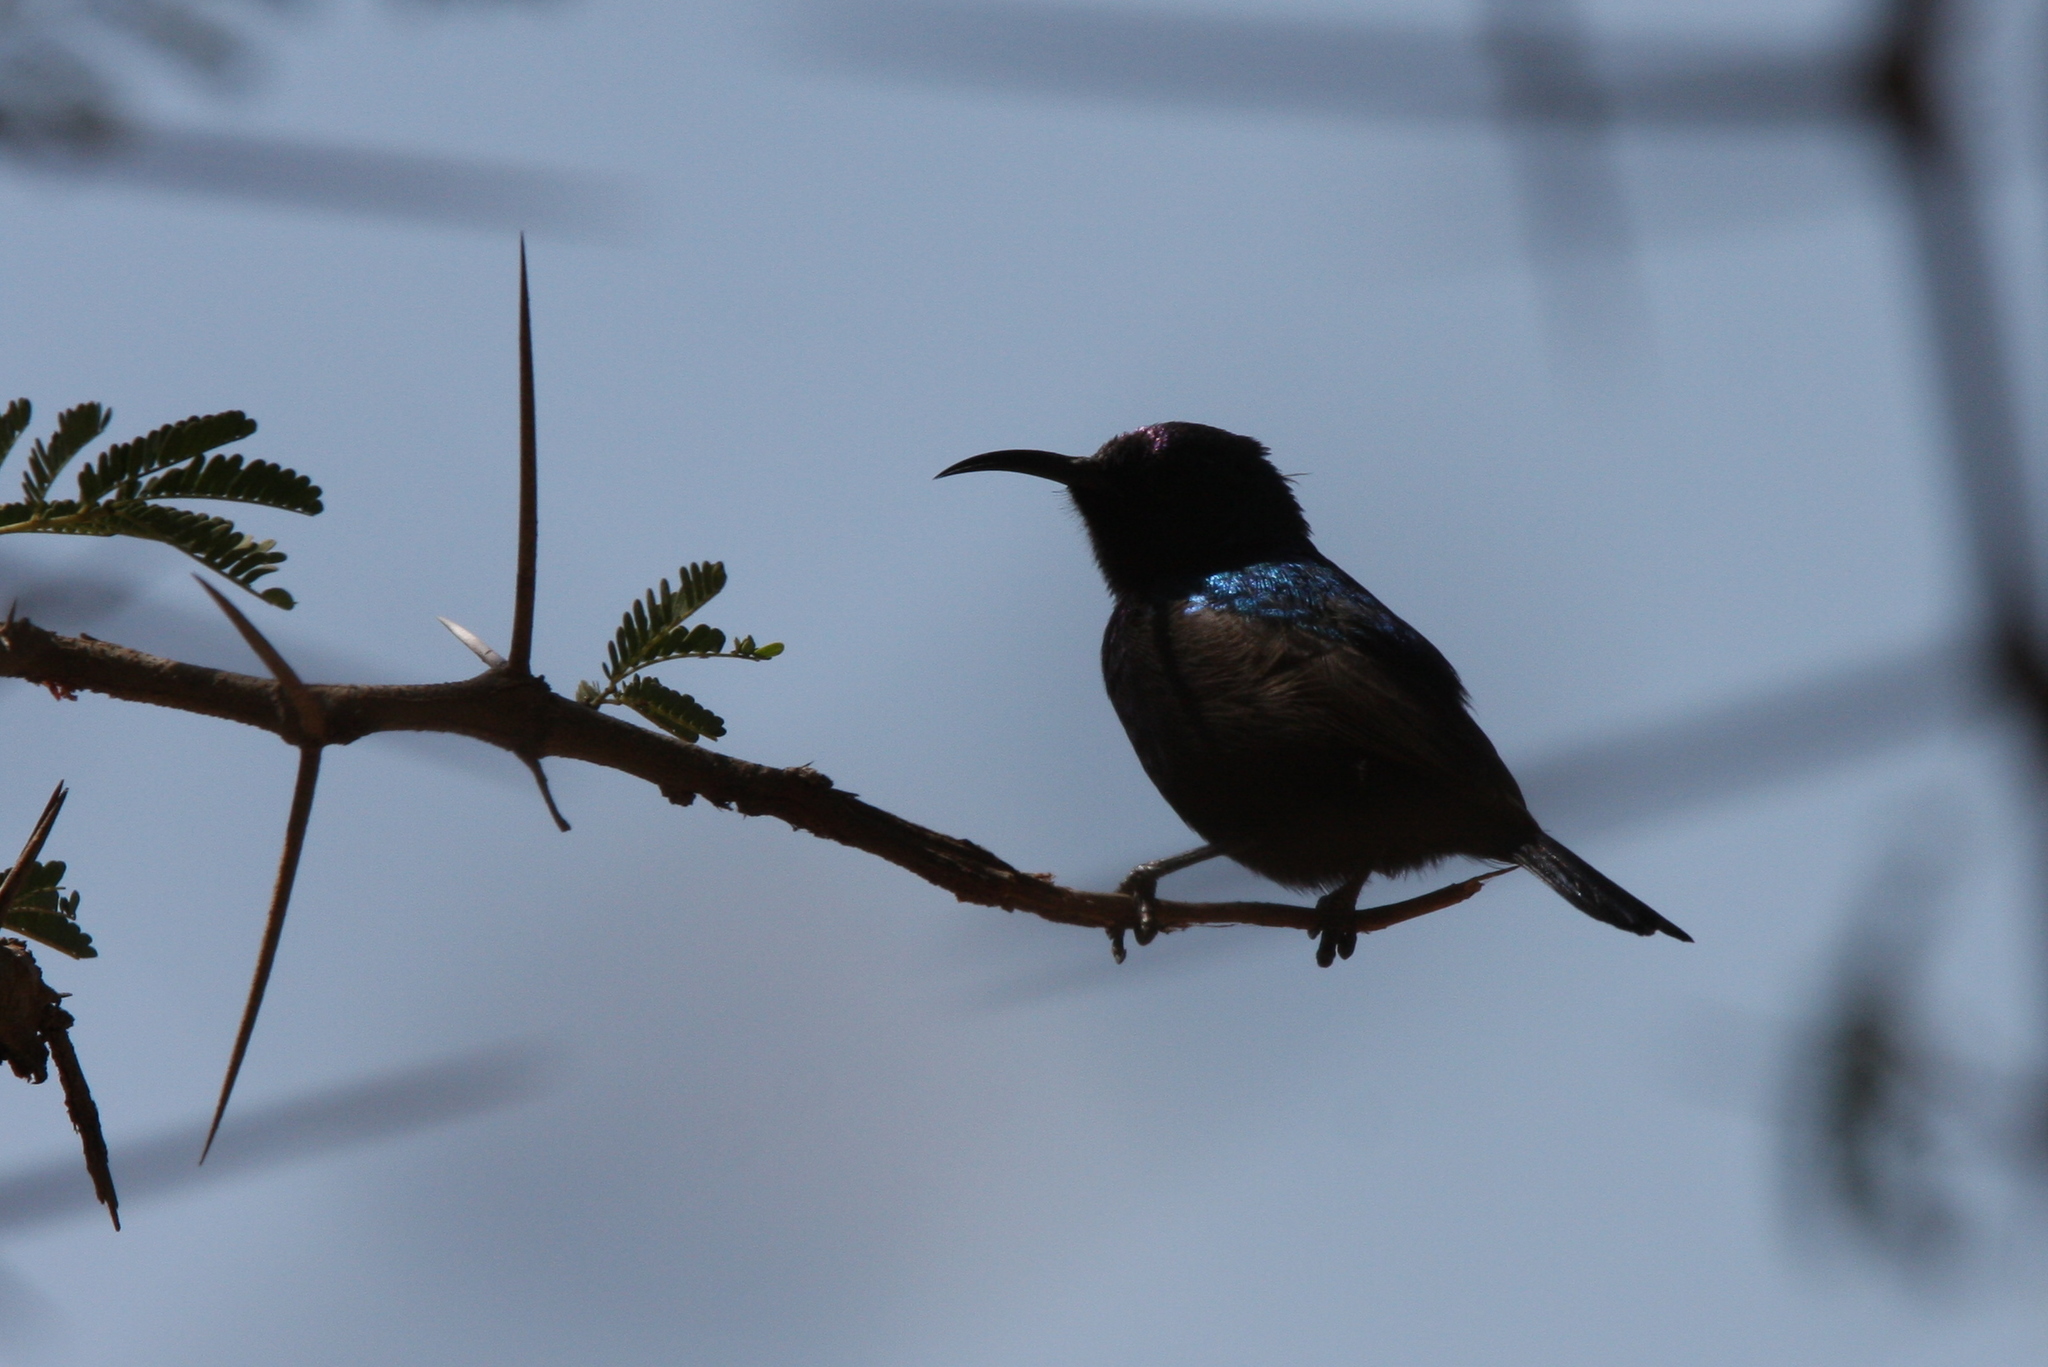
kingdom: Animalia
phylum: Chordata
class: Aves
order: Passeriformes
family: Nectariniidae
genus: Cinnyris
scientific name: Cinnyris osea
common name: Palestine sunbird
